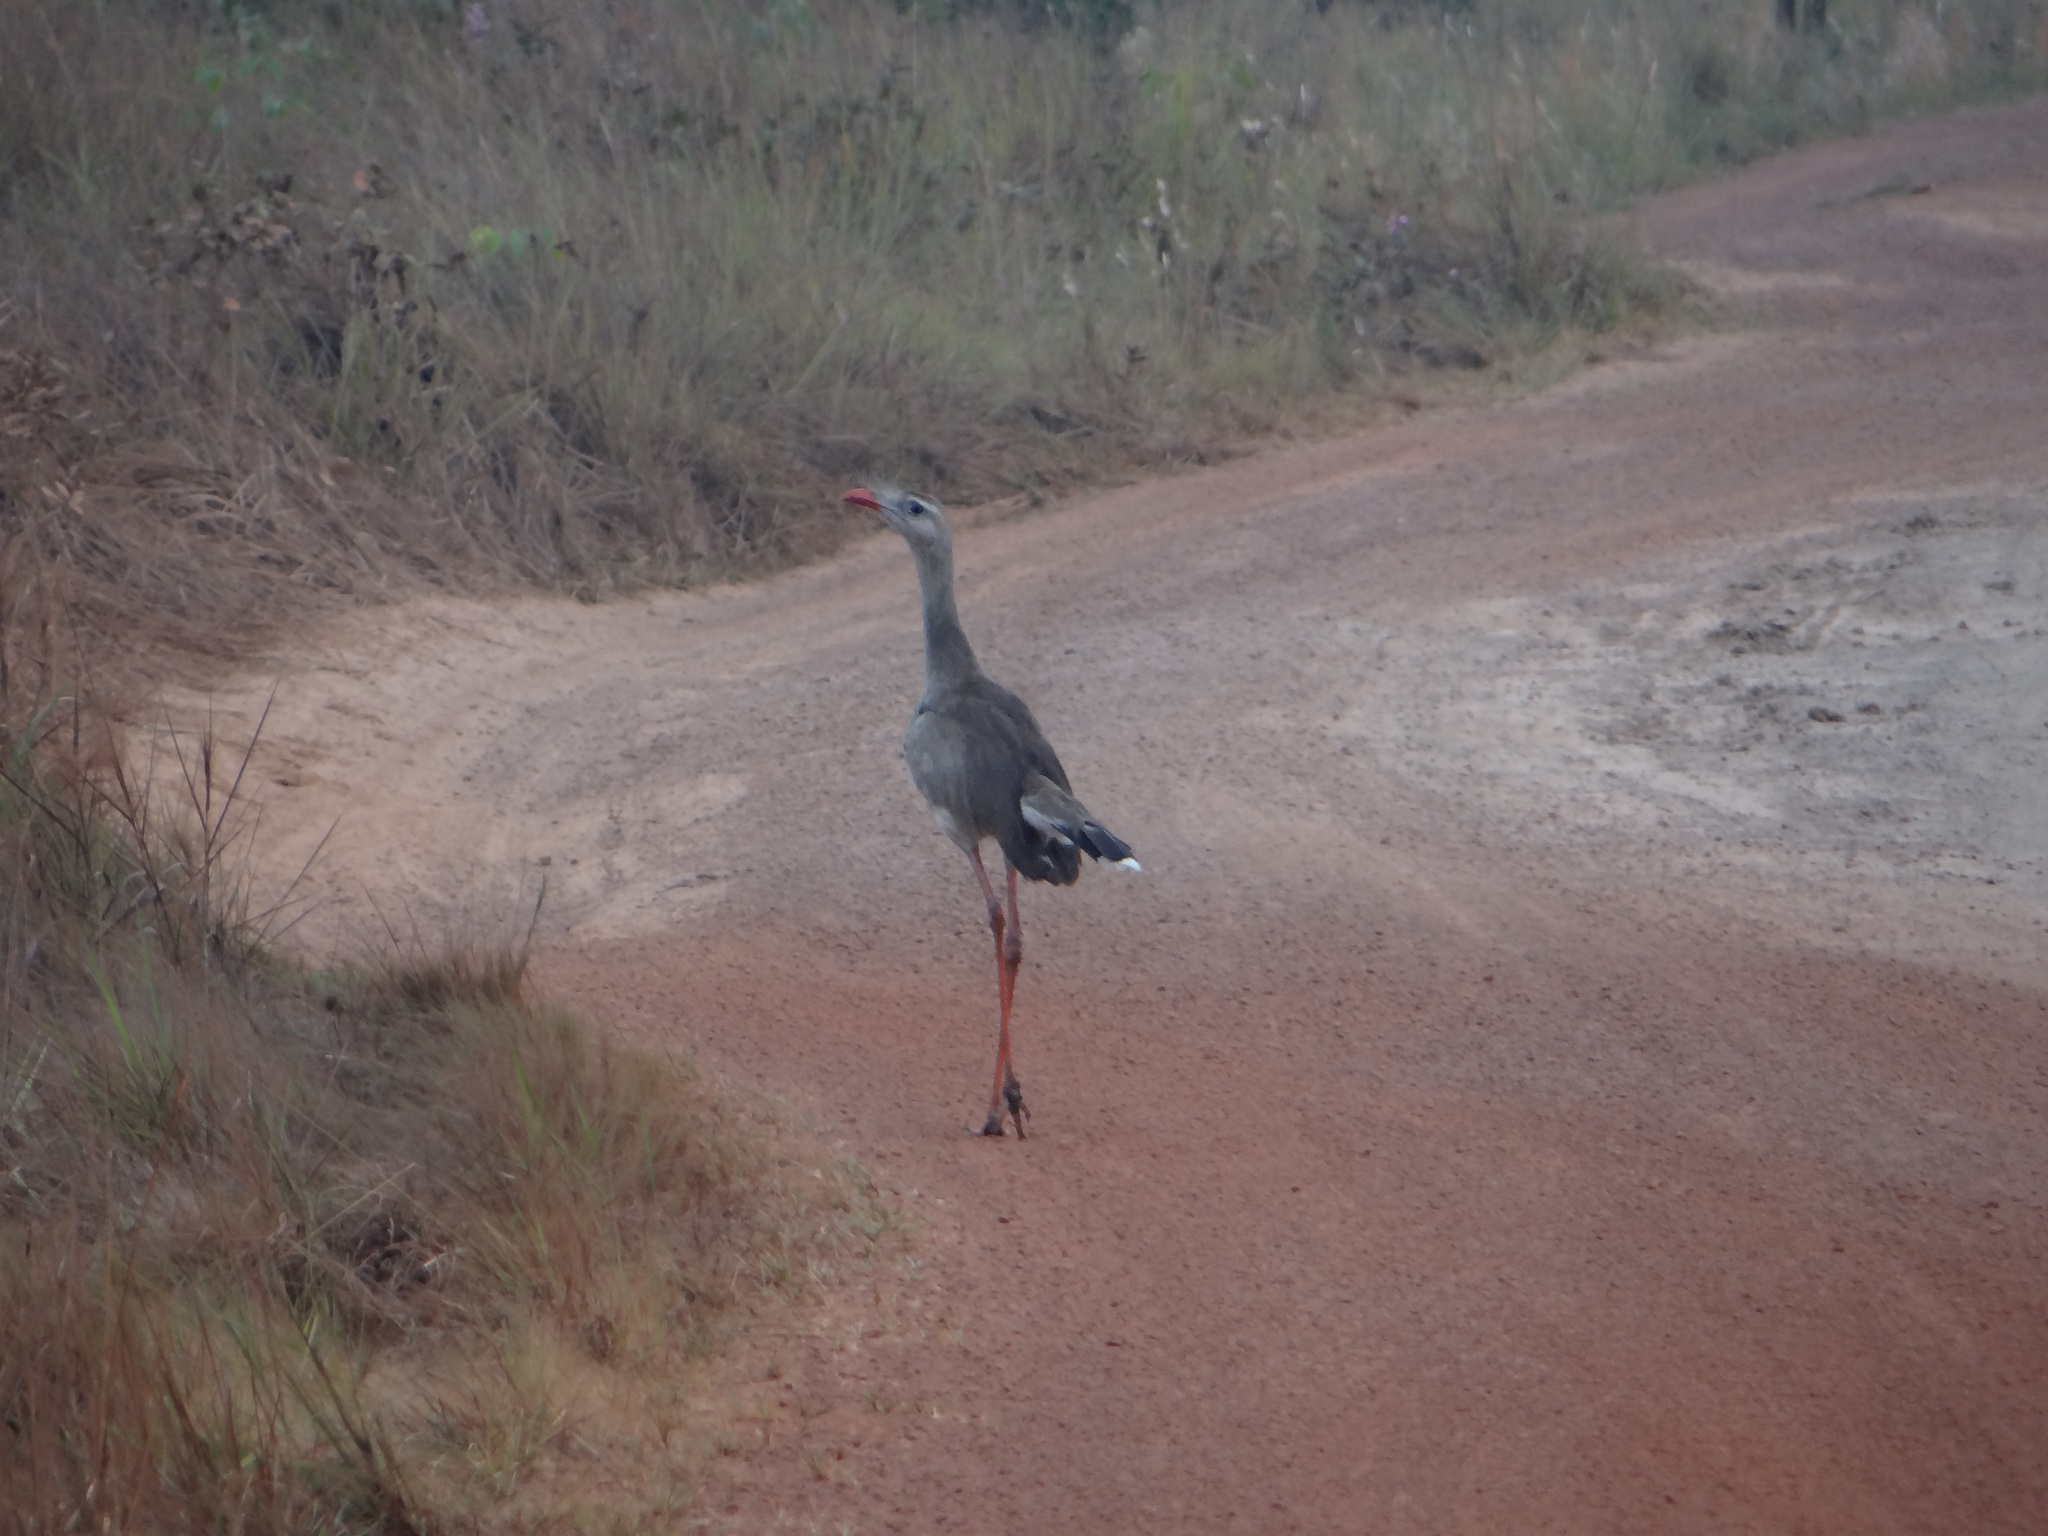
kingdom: Animalia
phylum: Chordata
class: Aves
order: Cariamiformes
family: Cariamidae
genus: Cariama
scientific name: Cariama cristata
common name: Red-legged seriema
